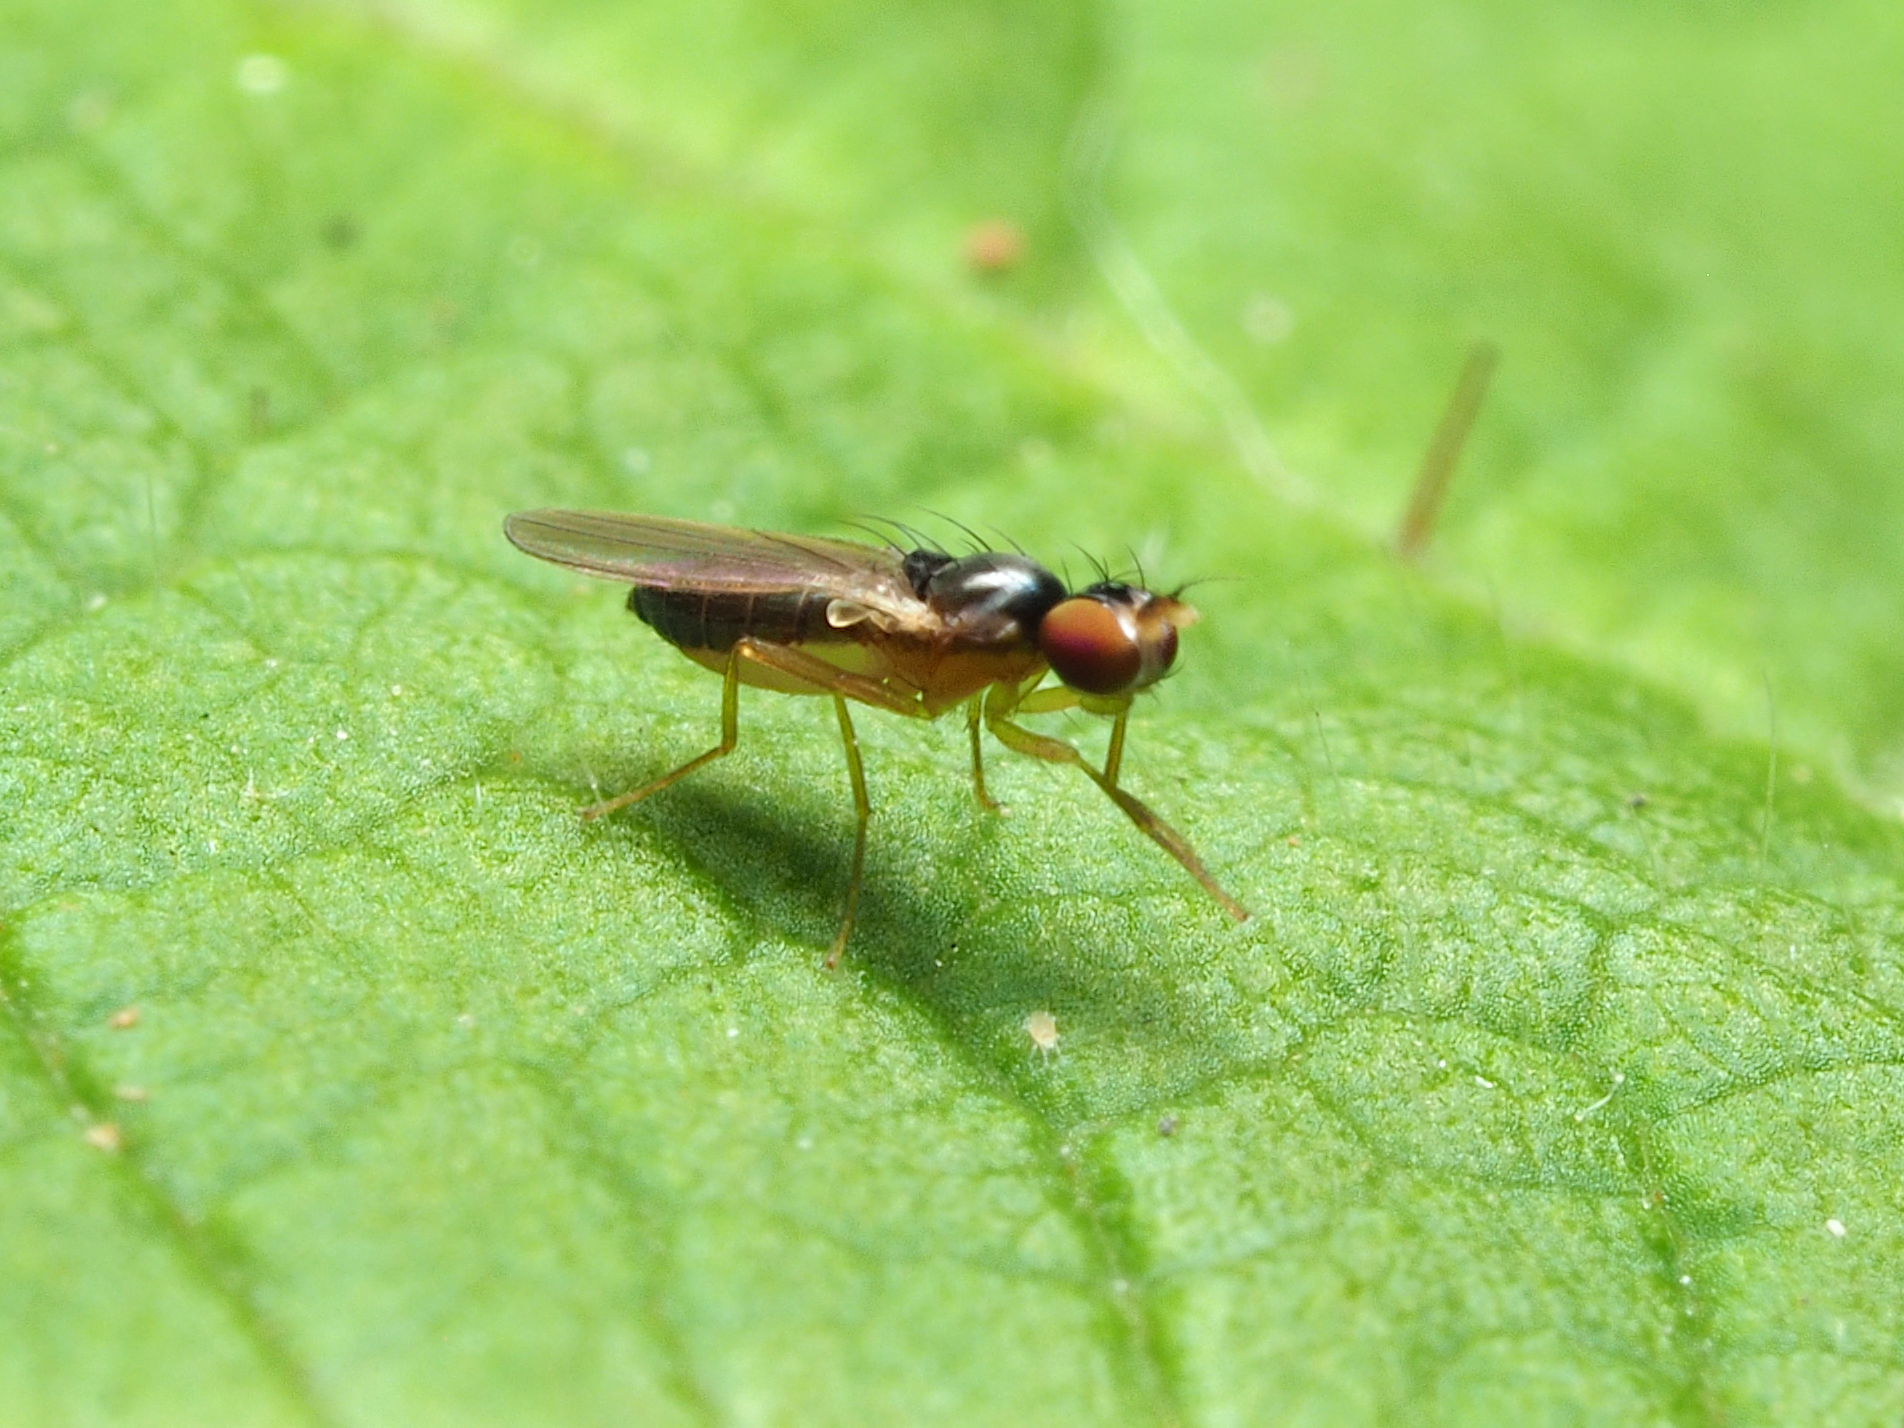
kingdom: Animalia
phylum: Arthropoda
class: Insecta
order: Diptera
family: Anthomyzidae
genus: Mumetopia
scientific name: Mumetopia occipitalis
